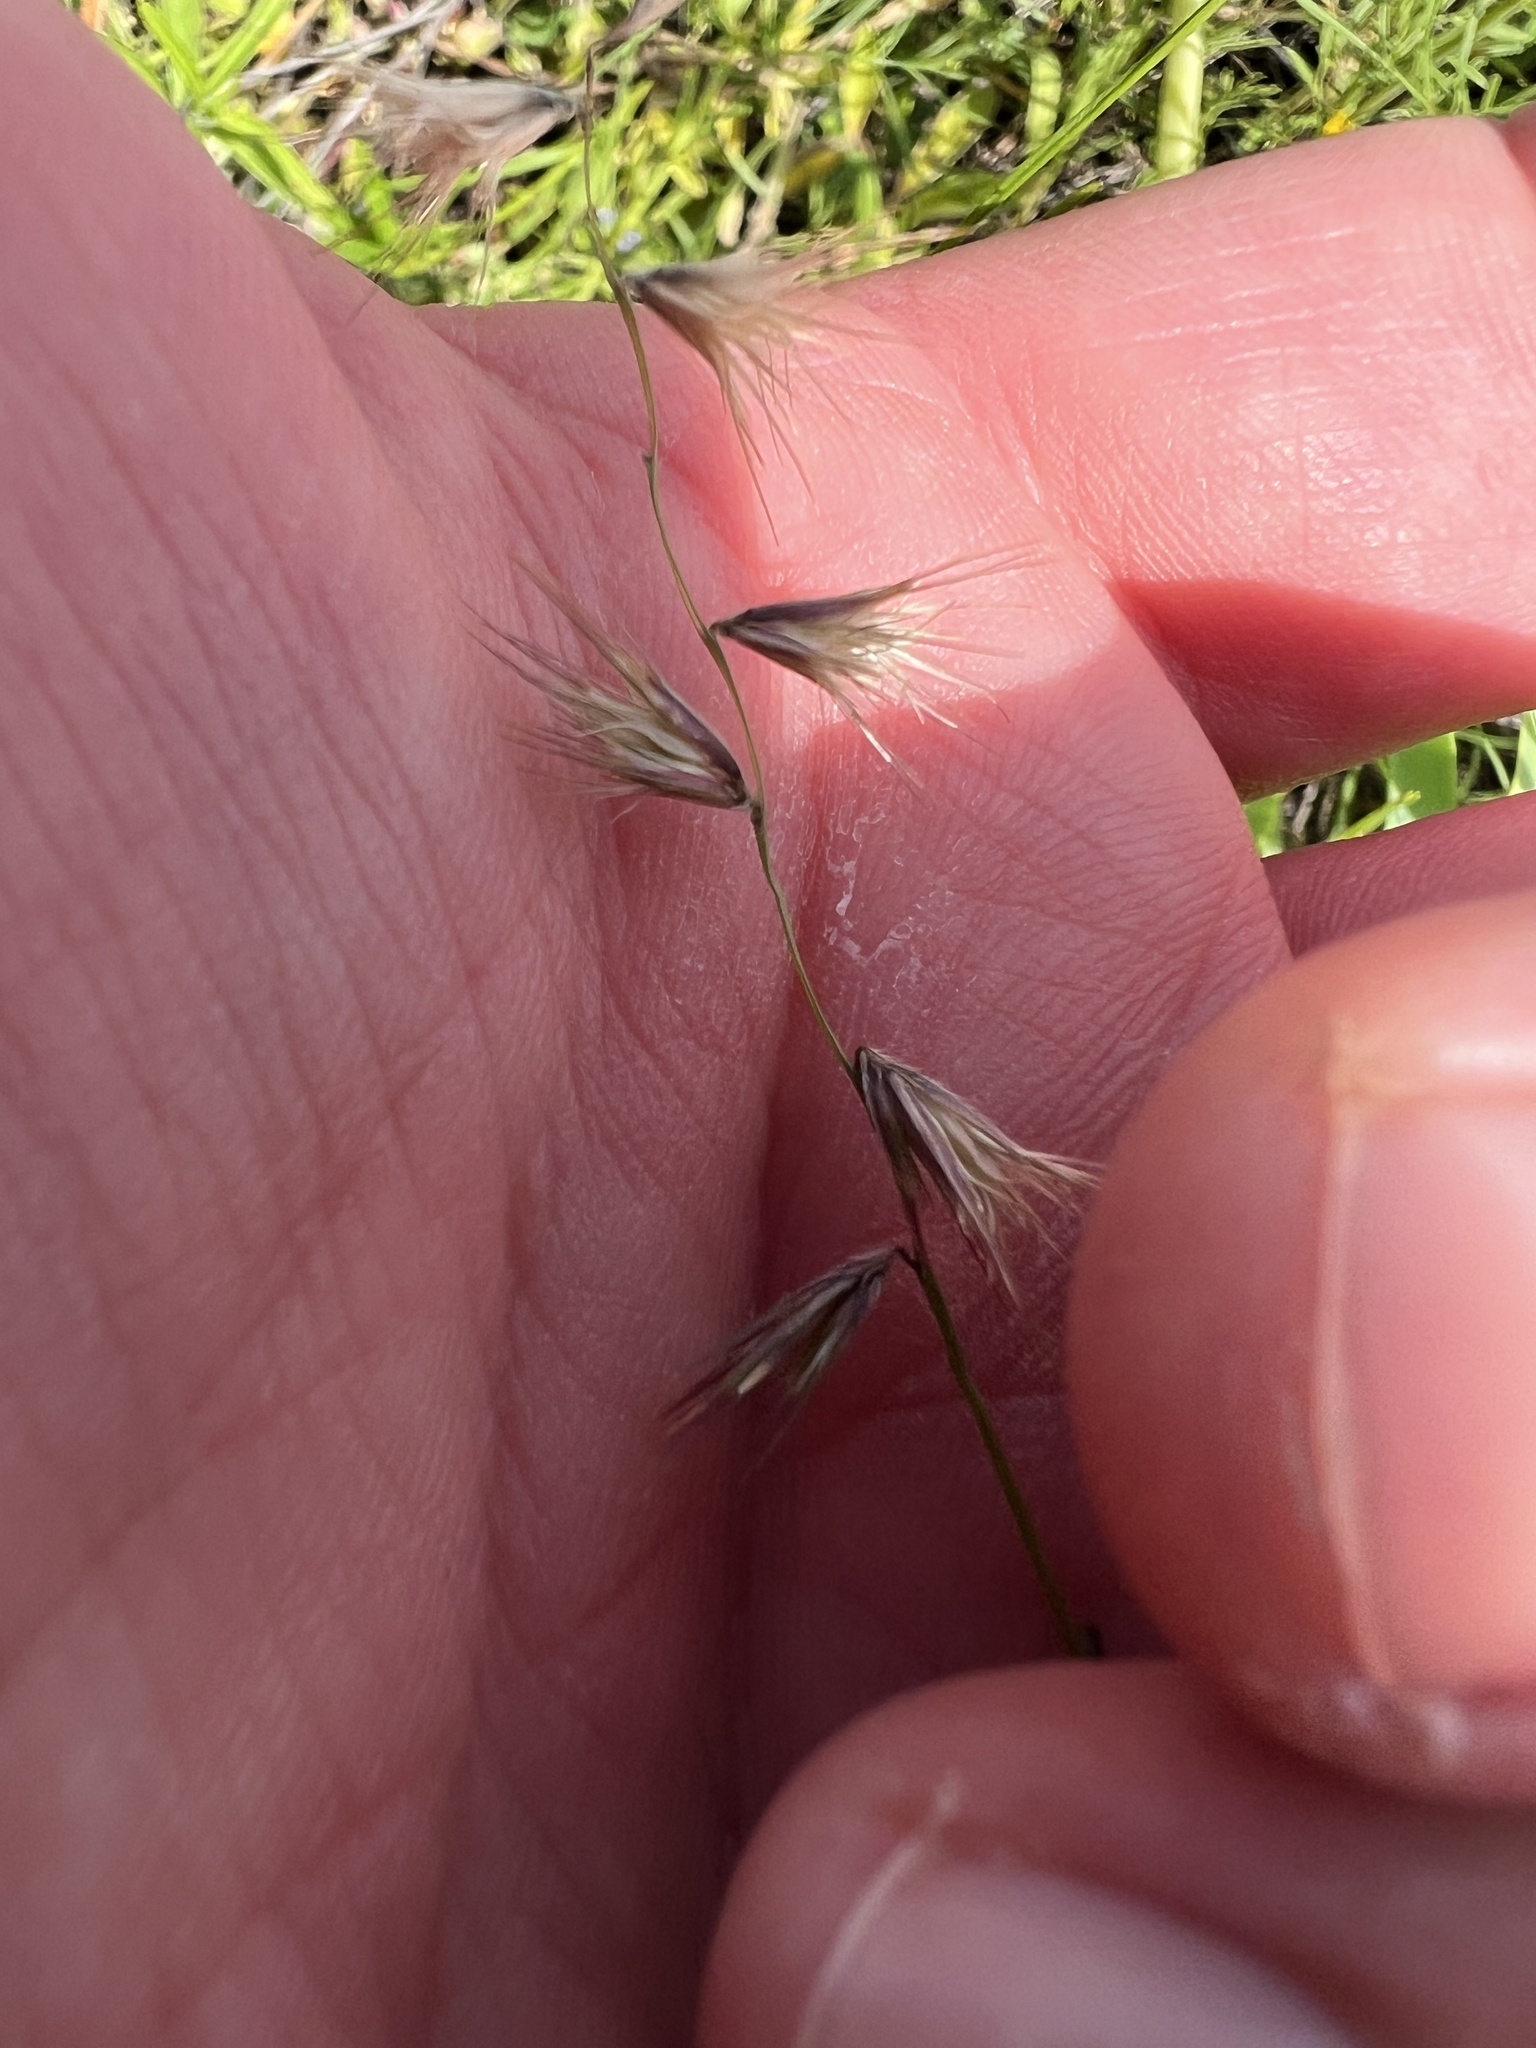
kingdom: Plantae
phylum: Tracheophyta
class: Liliopsida
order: Poales
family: Poaceae
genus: Bouteloua
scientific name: Bouteloua rigidiseta
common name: Texas grama
